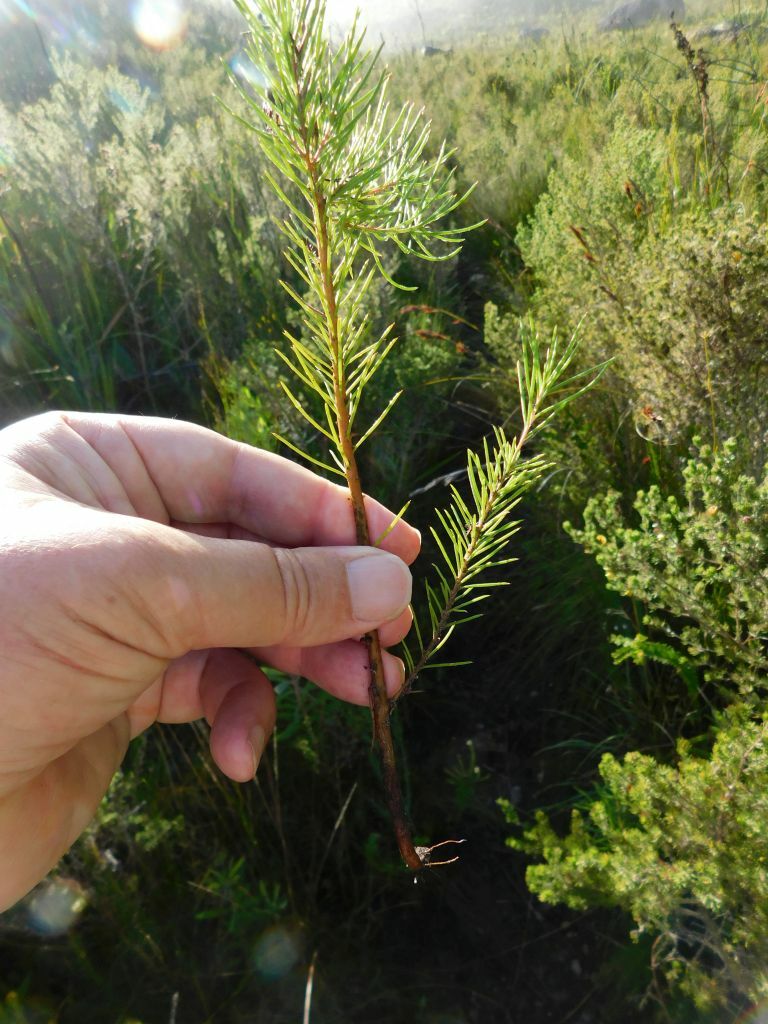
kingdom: Plantae
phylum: Tracheophyta
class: Magnoliopsida
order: Proteales
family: Proteaceae
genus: Hakea
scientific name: Hakea sericea
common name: Needle bush
